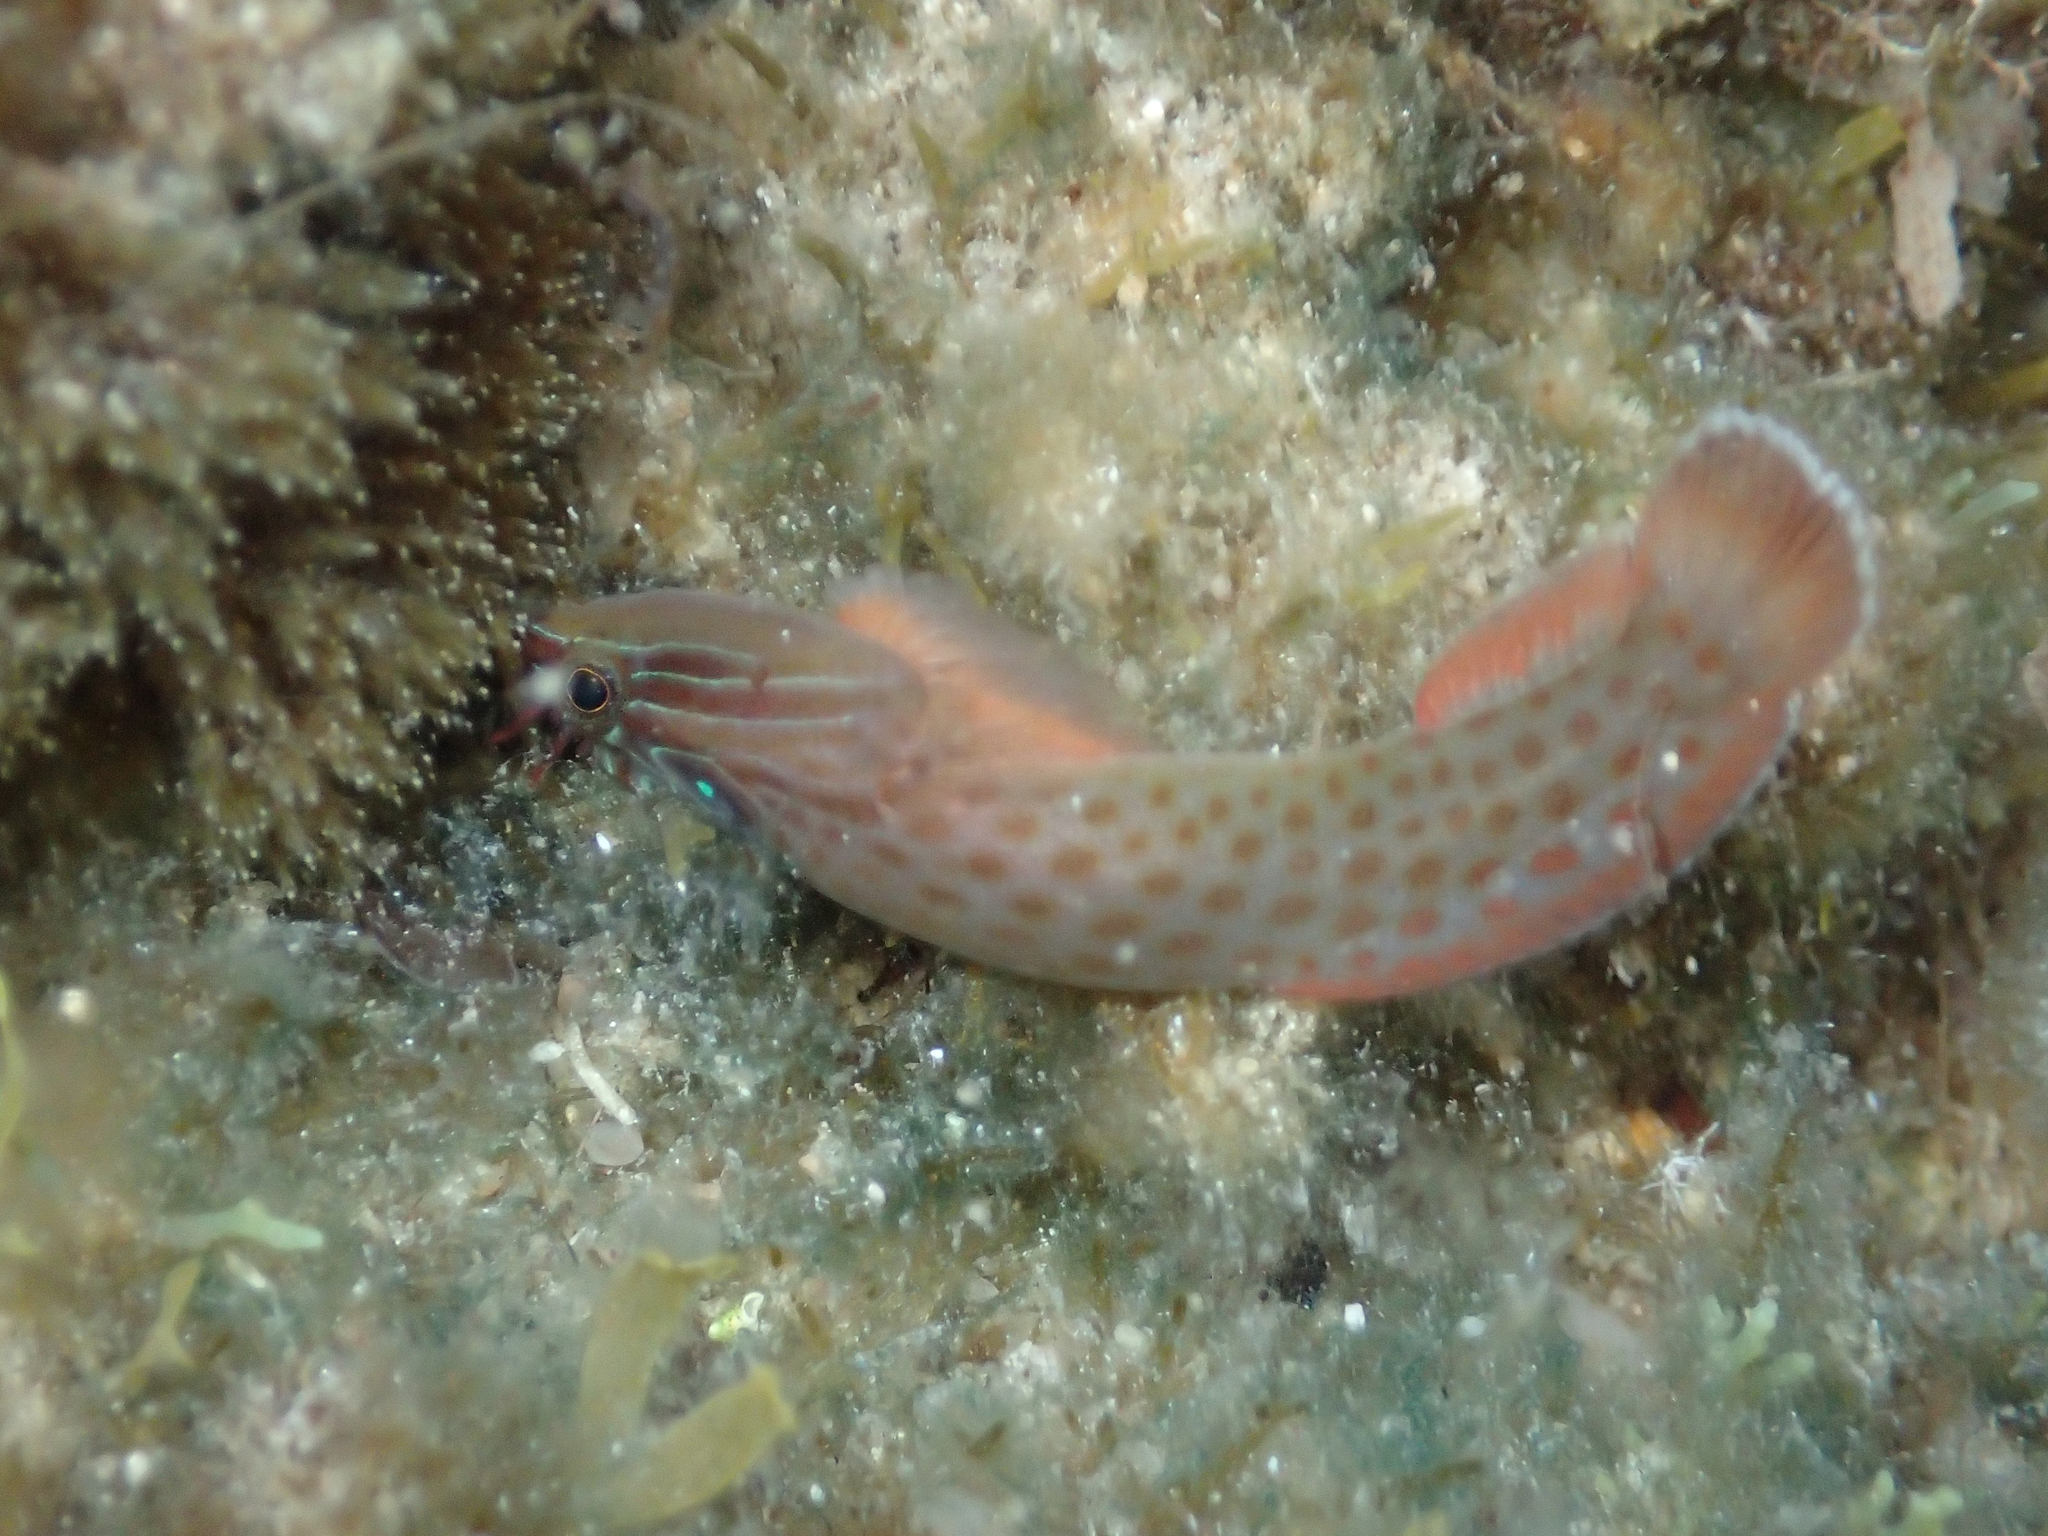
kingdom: Animalia
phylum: Chordata
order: Gobiesociformes
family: Gobiesocidae
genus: Lepadogaster
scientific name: Lepadogaster purpurea
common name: Cornish sucker
